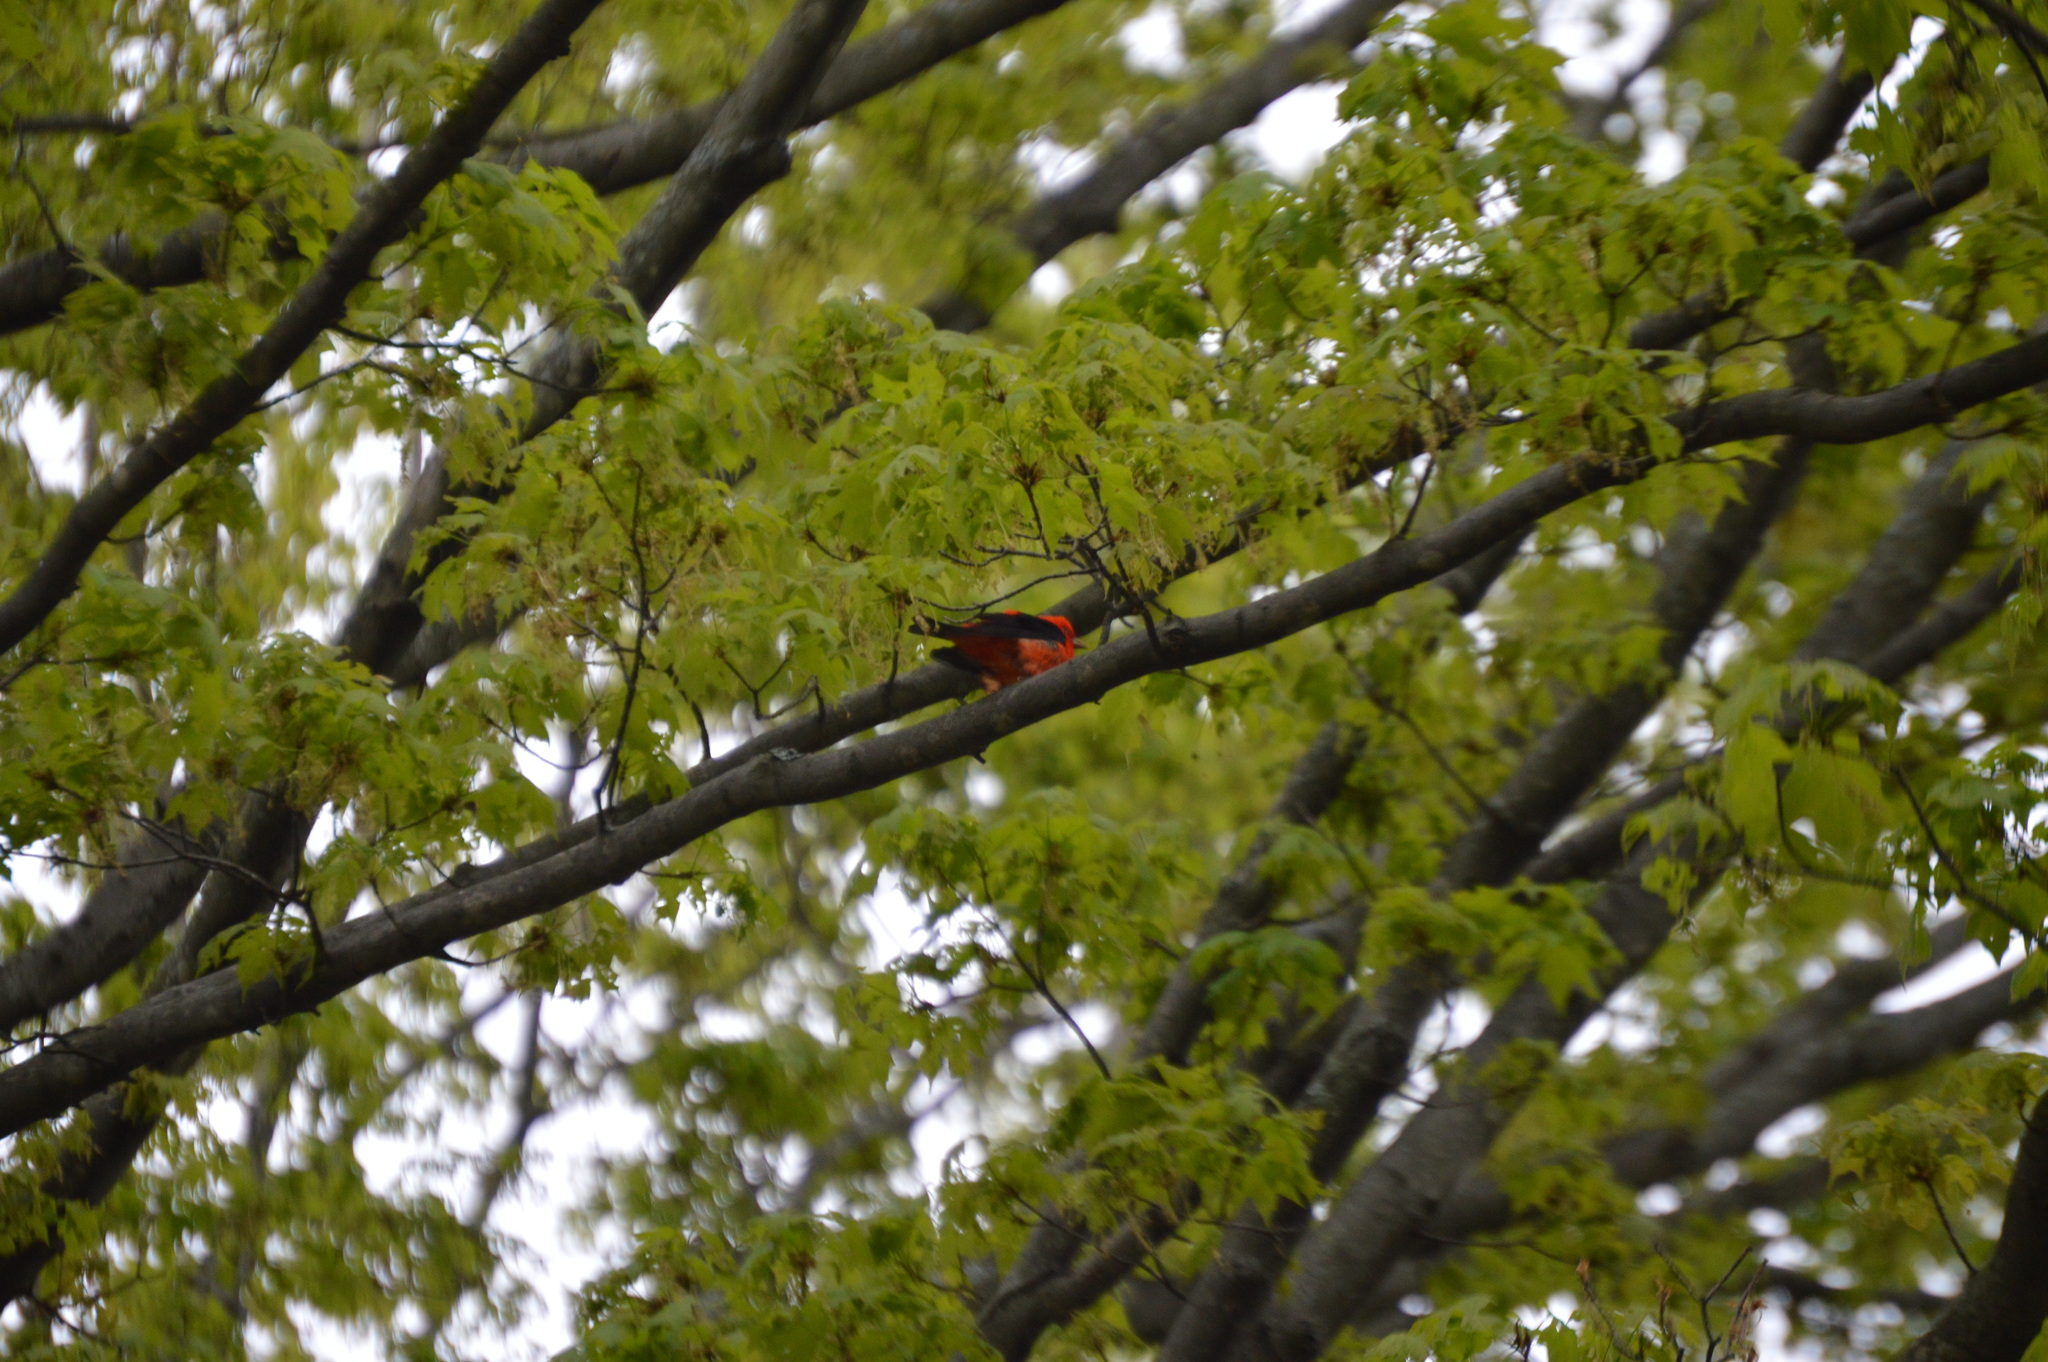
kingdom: Animalia
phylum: Chordata
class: Aves
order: Passeriformes
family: Cardinalidae
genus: Piranga
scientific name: Piranga olivacea
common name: Scarlet tanager
